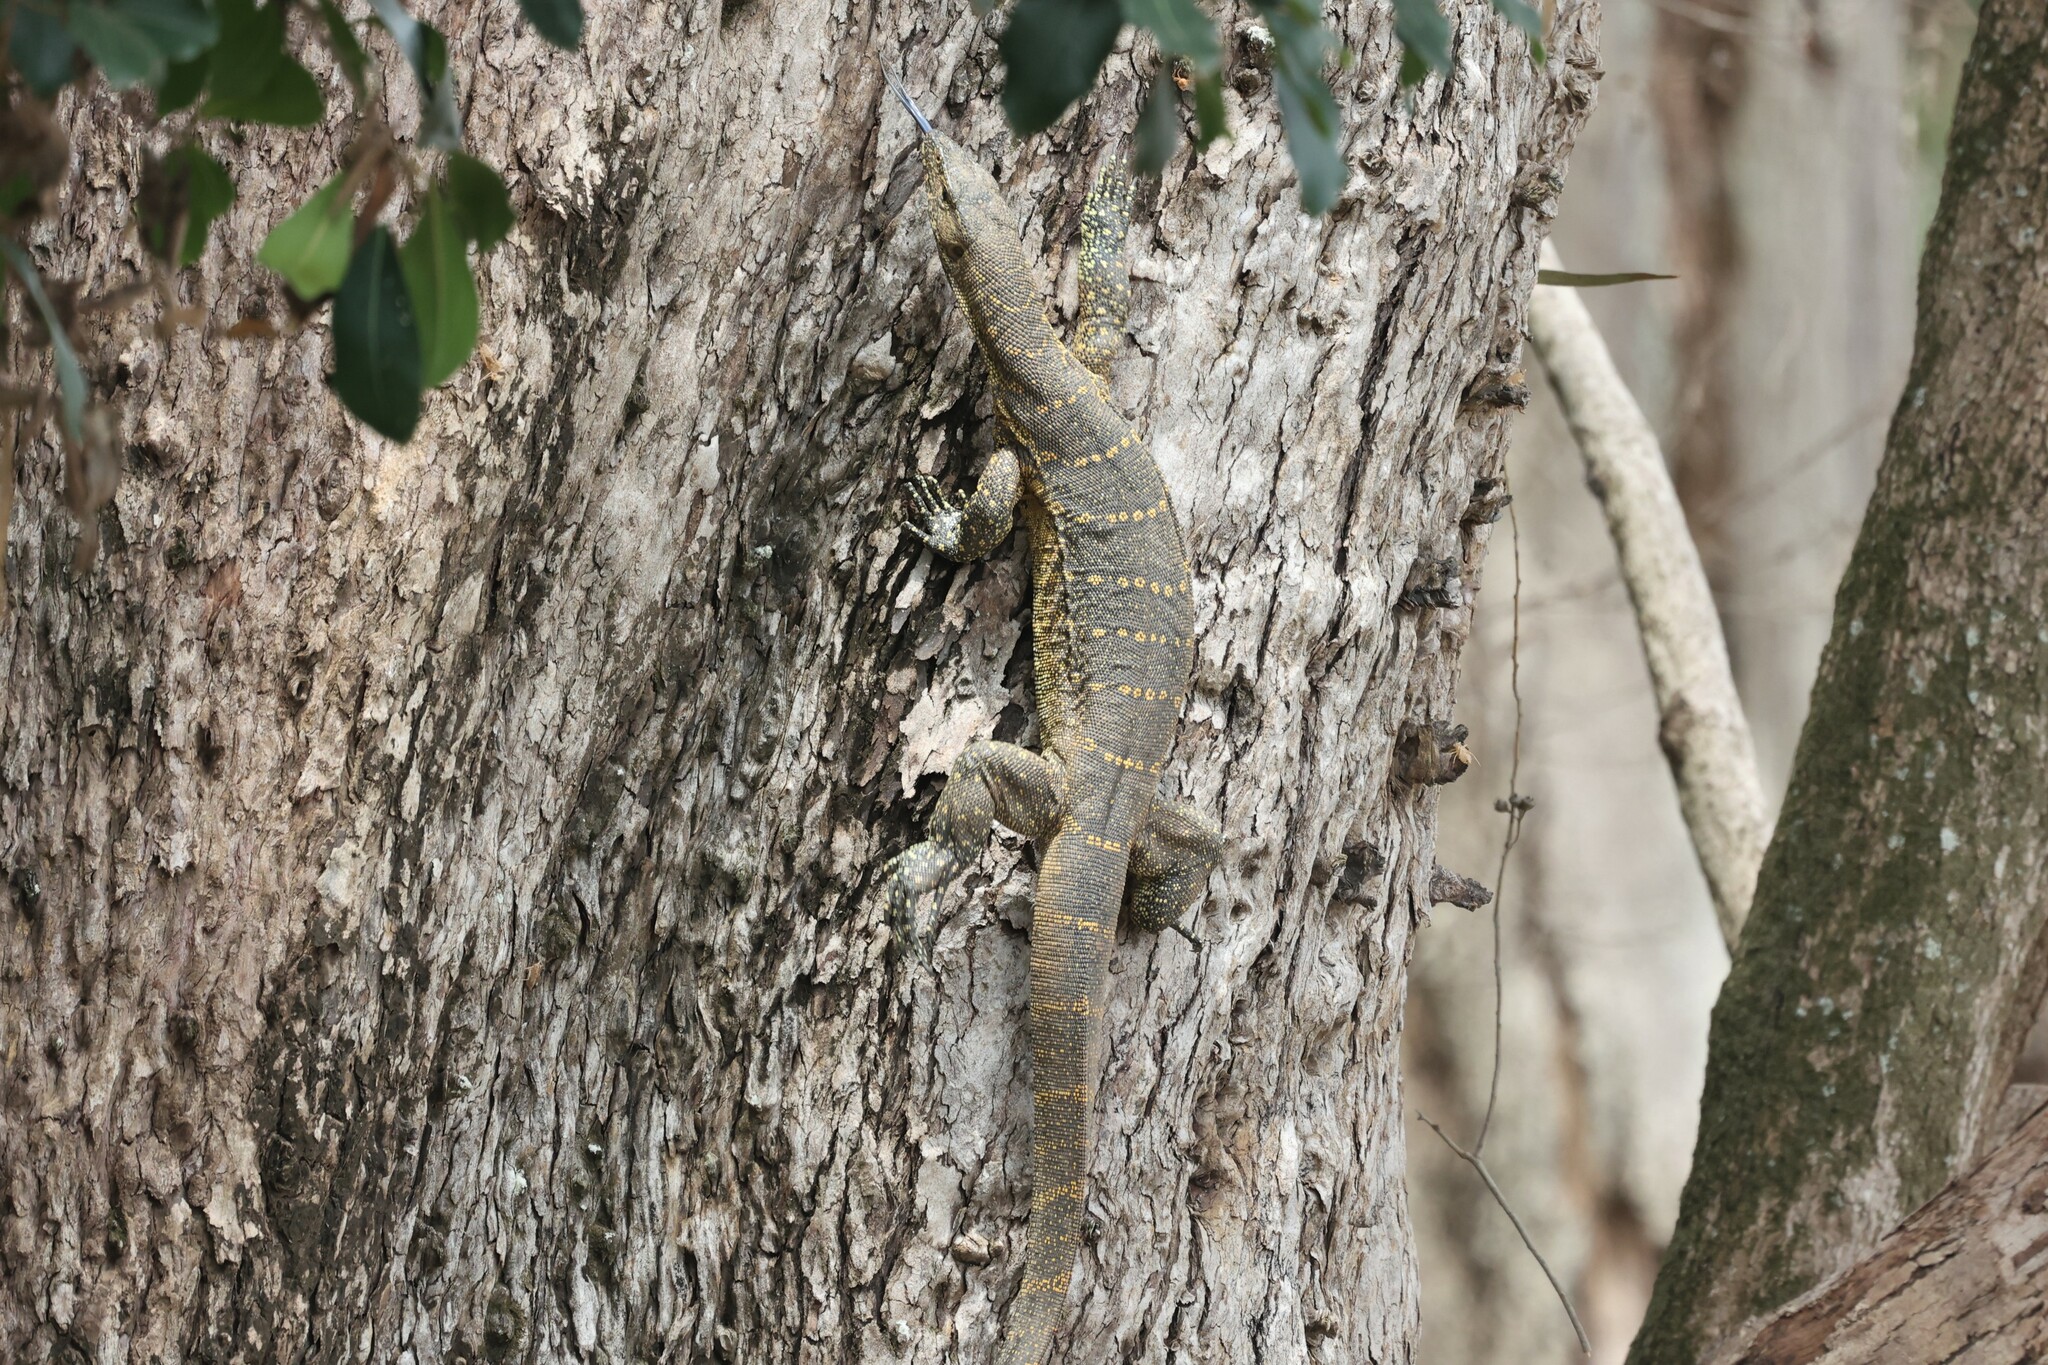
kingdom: Animalia
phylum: Chordata
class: Squamata
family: Varanidae
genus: Varanus
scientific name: Varanus niloticus
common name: Nile monitor
